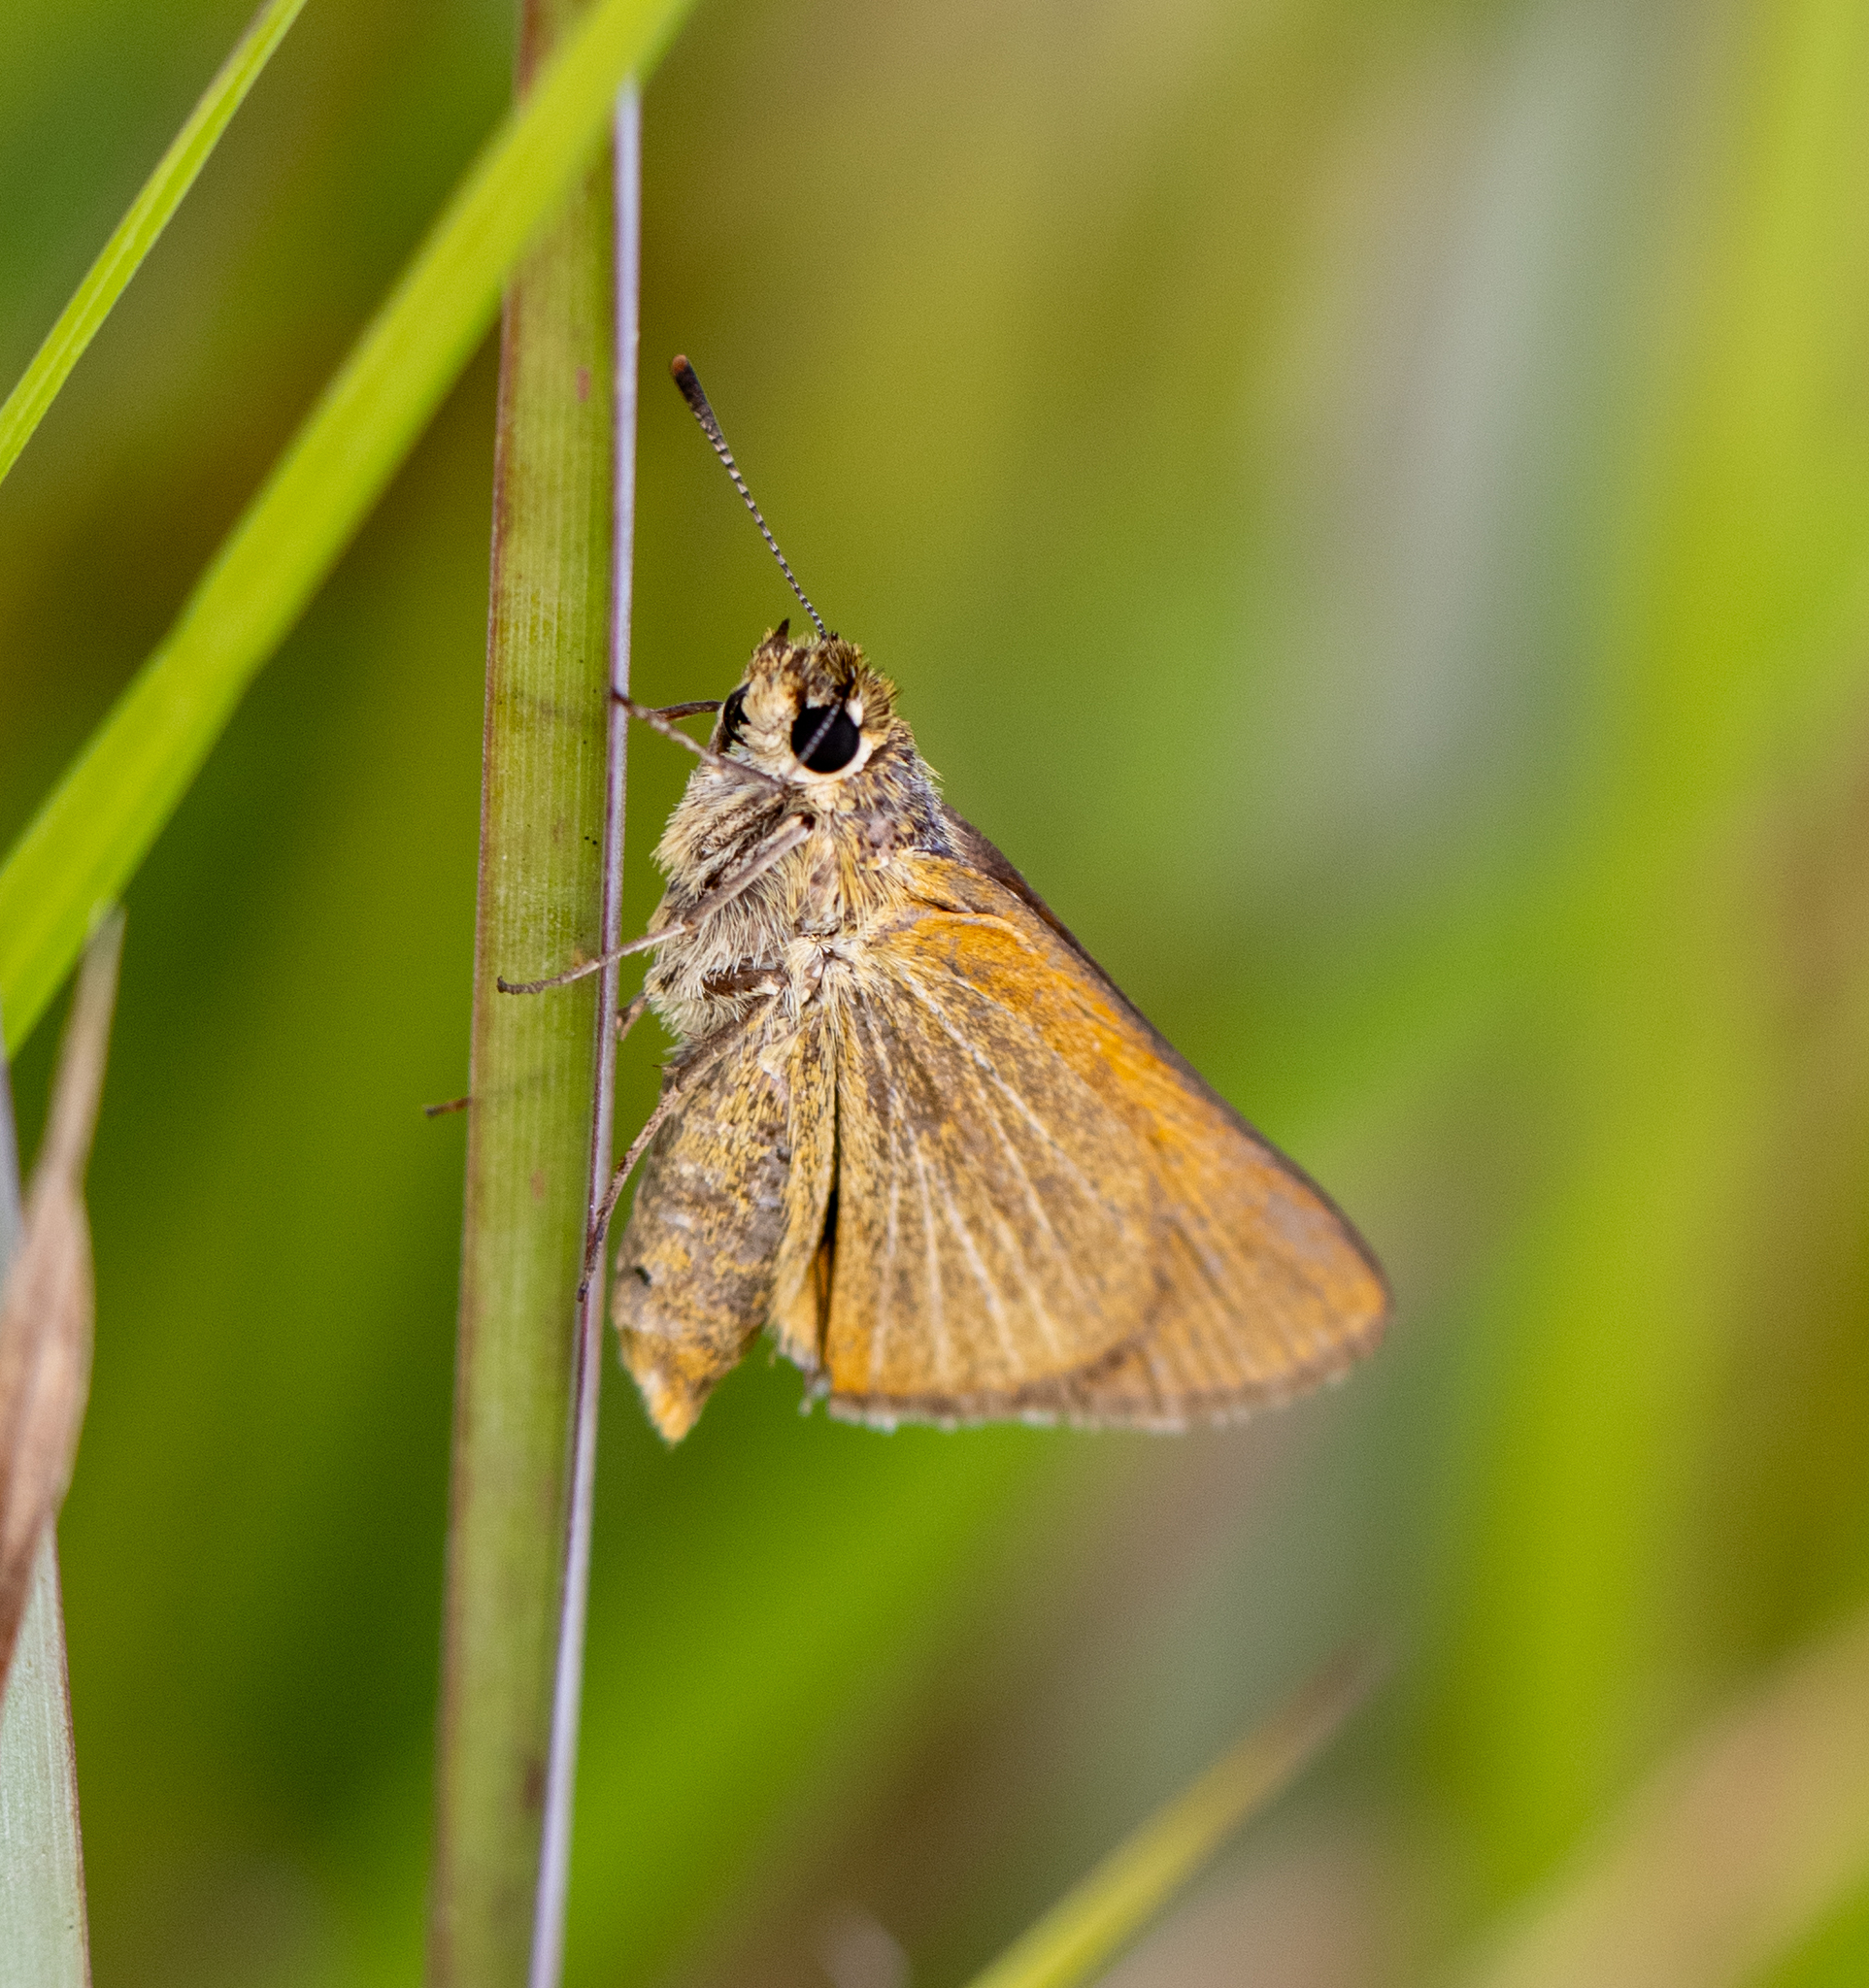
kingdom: Animalia
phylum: Arthropoda
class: Insecta
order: Lepidoptera
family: Hesperiidae
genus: Euphyes
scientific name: Euphyes berryi
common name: Berry's skipper
